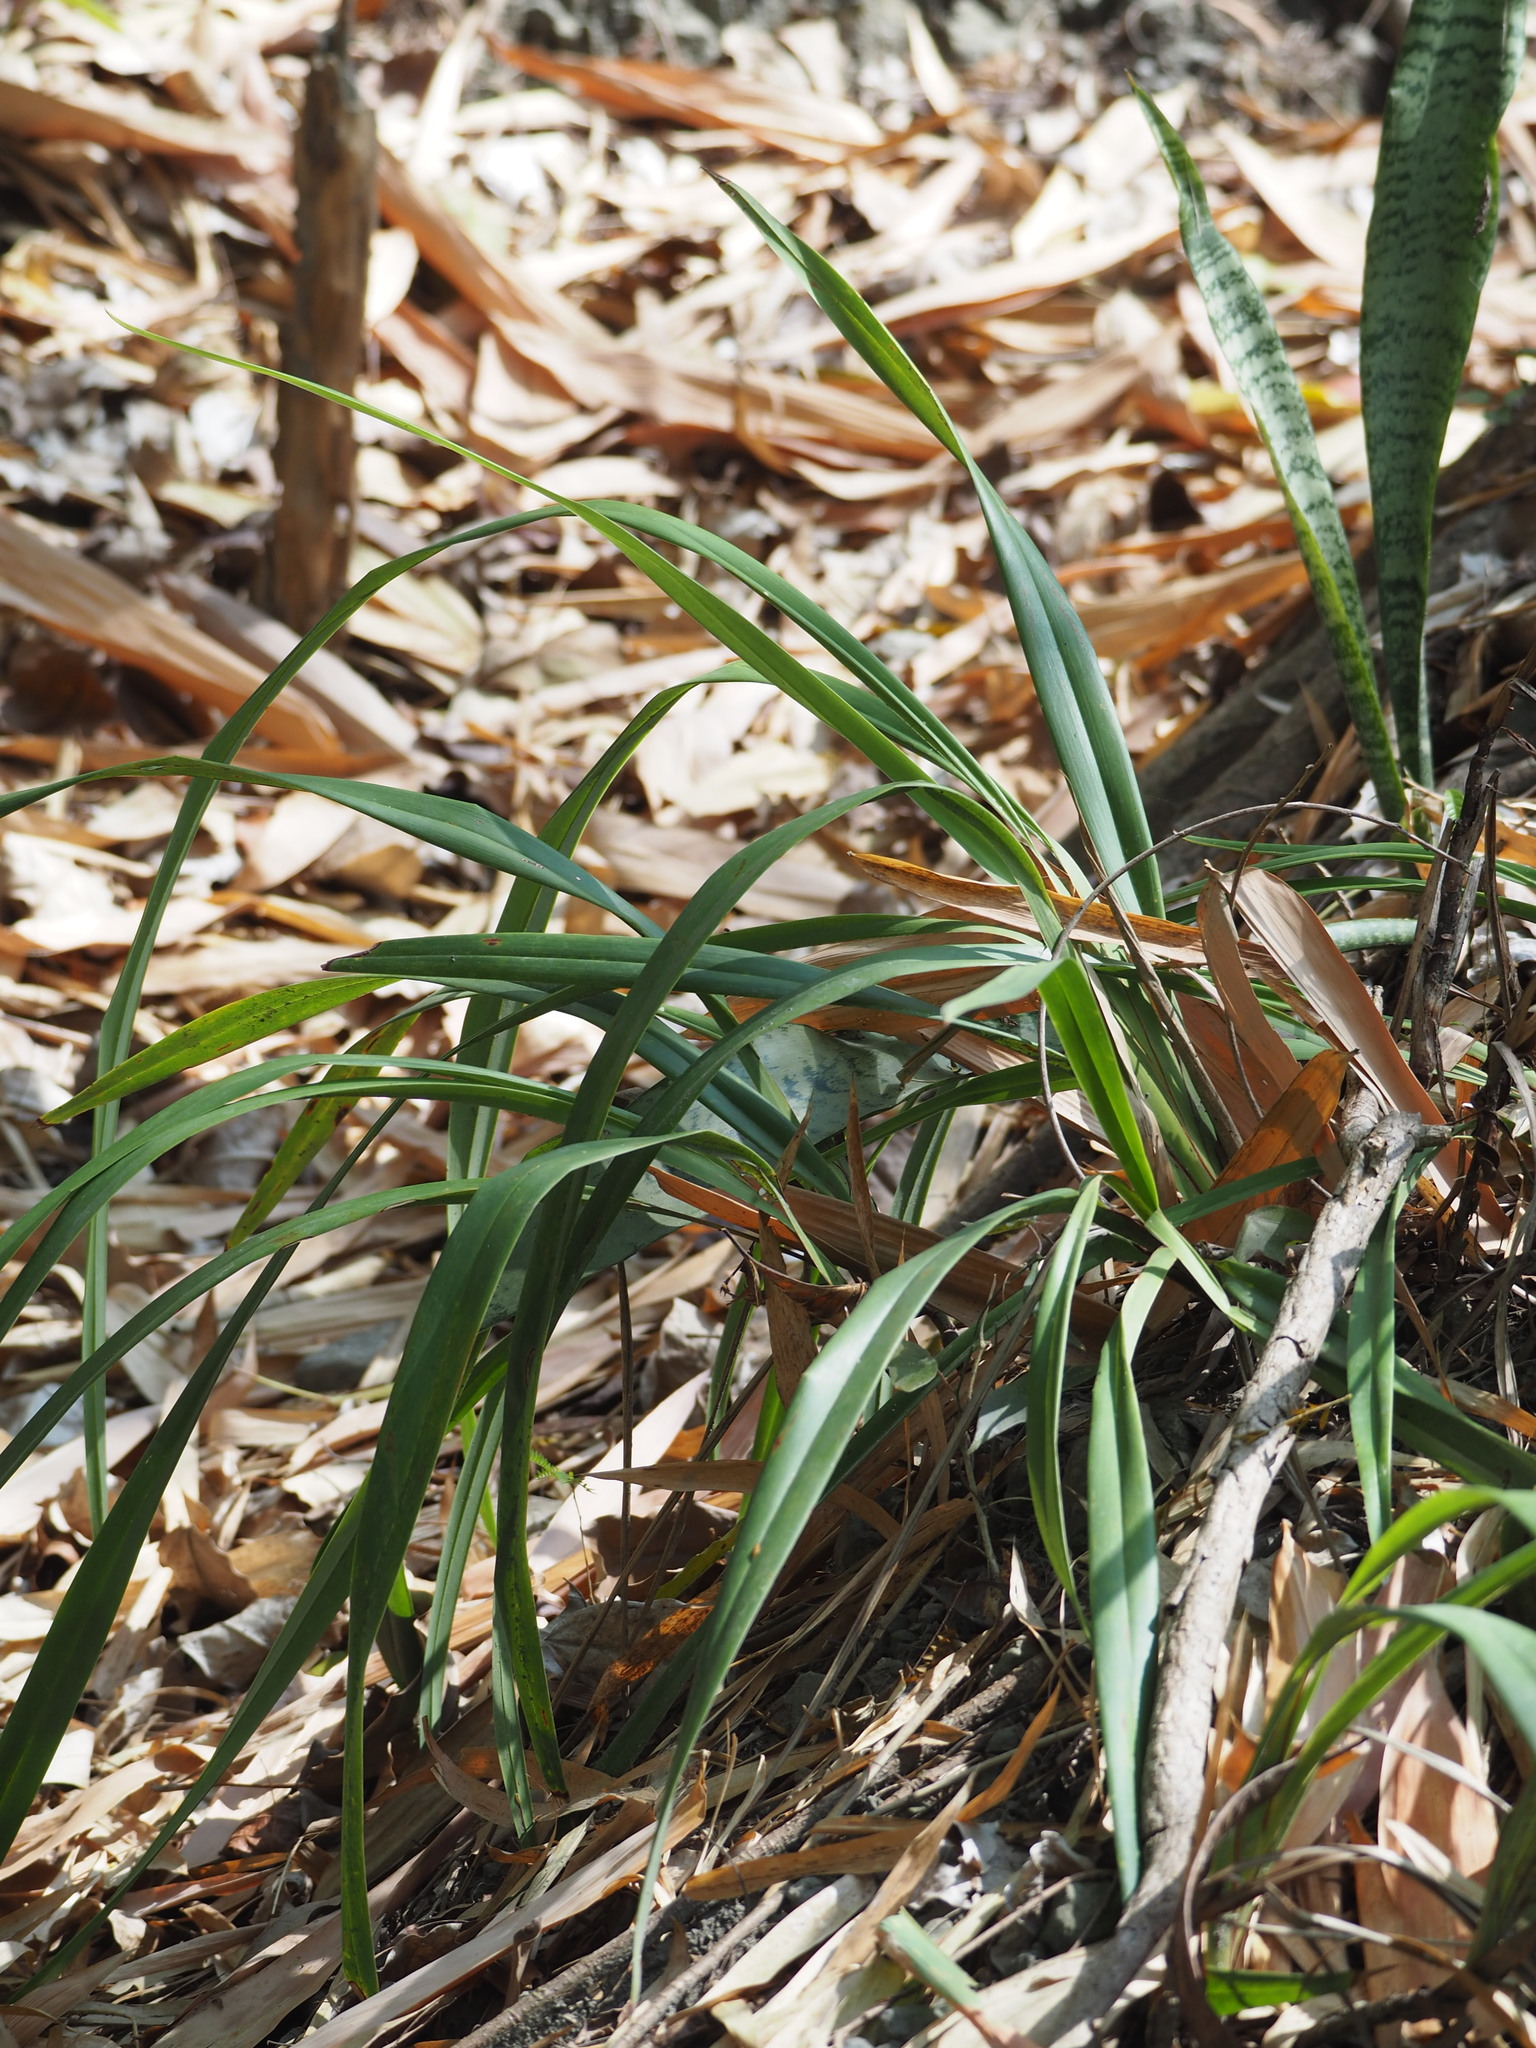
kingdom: Plantae
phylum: Tracheophyta
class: Liliopsida
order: Asparagales
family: Asphodelaceae
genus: Dianella
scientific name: Dianella ensifolia
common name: New zealand lilyplant
